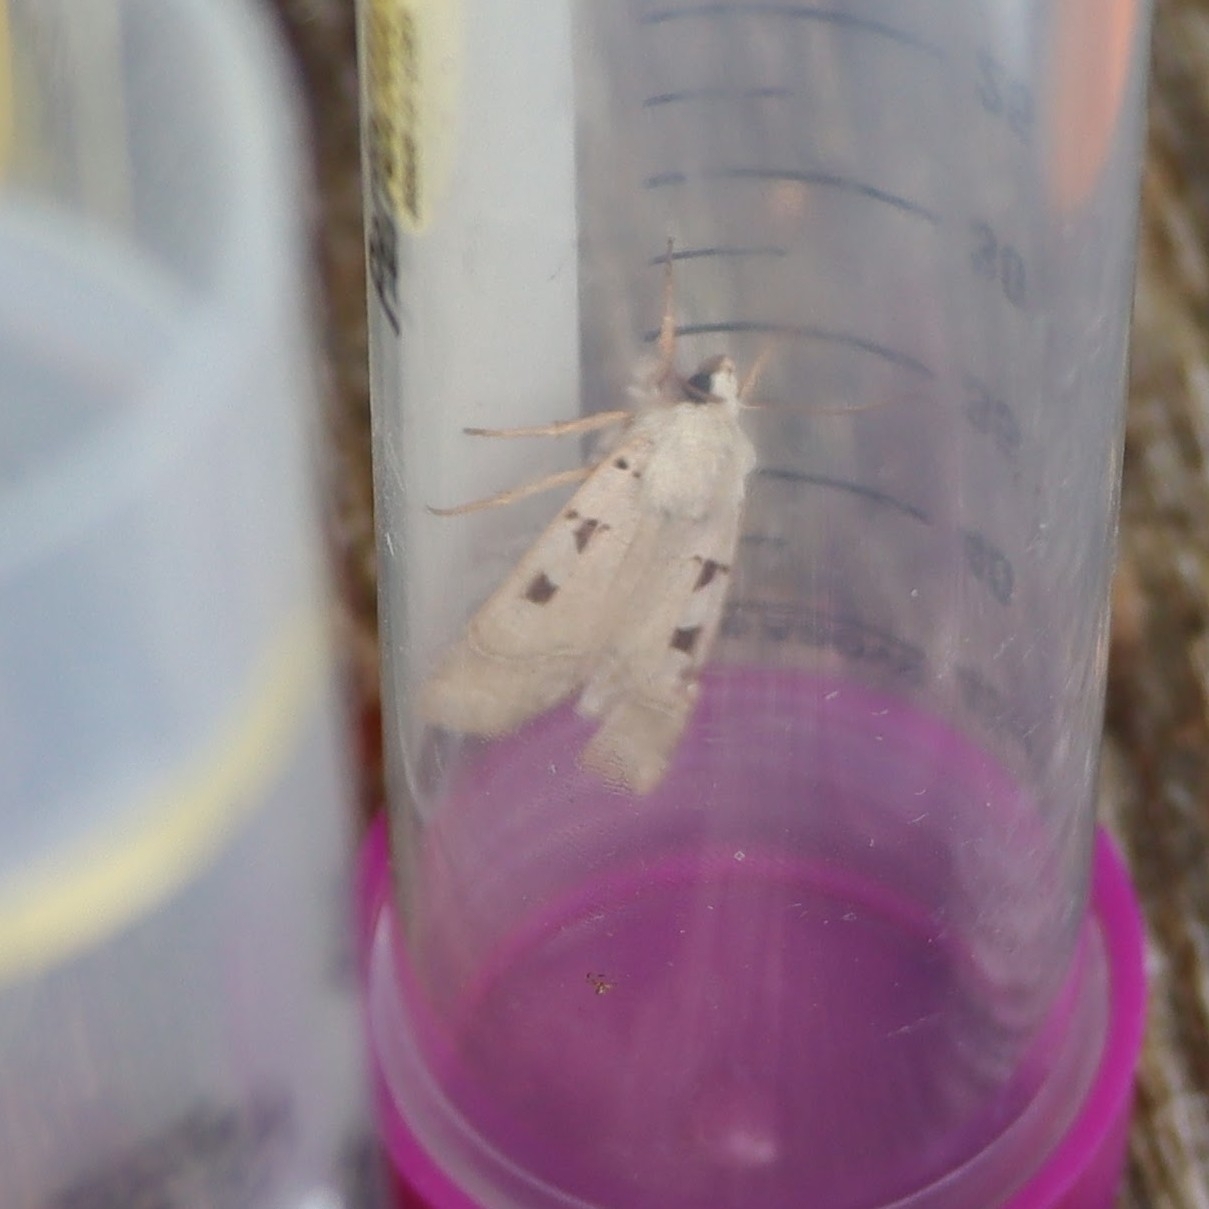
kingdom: Animalia
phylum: Arthropoda
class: Insecta
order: Lepidoptera
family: Noctuidae
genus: Eugnorisma
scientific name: Eugnorisma glareosa
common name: Autumnal rustic
